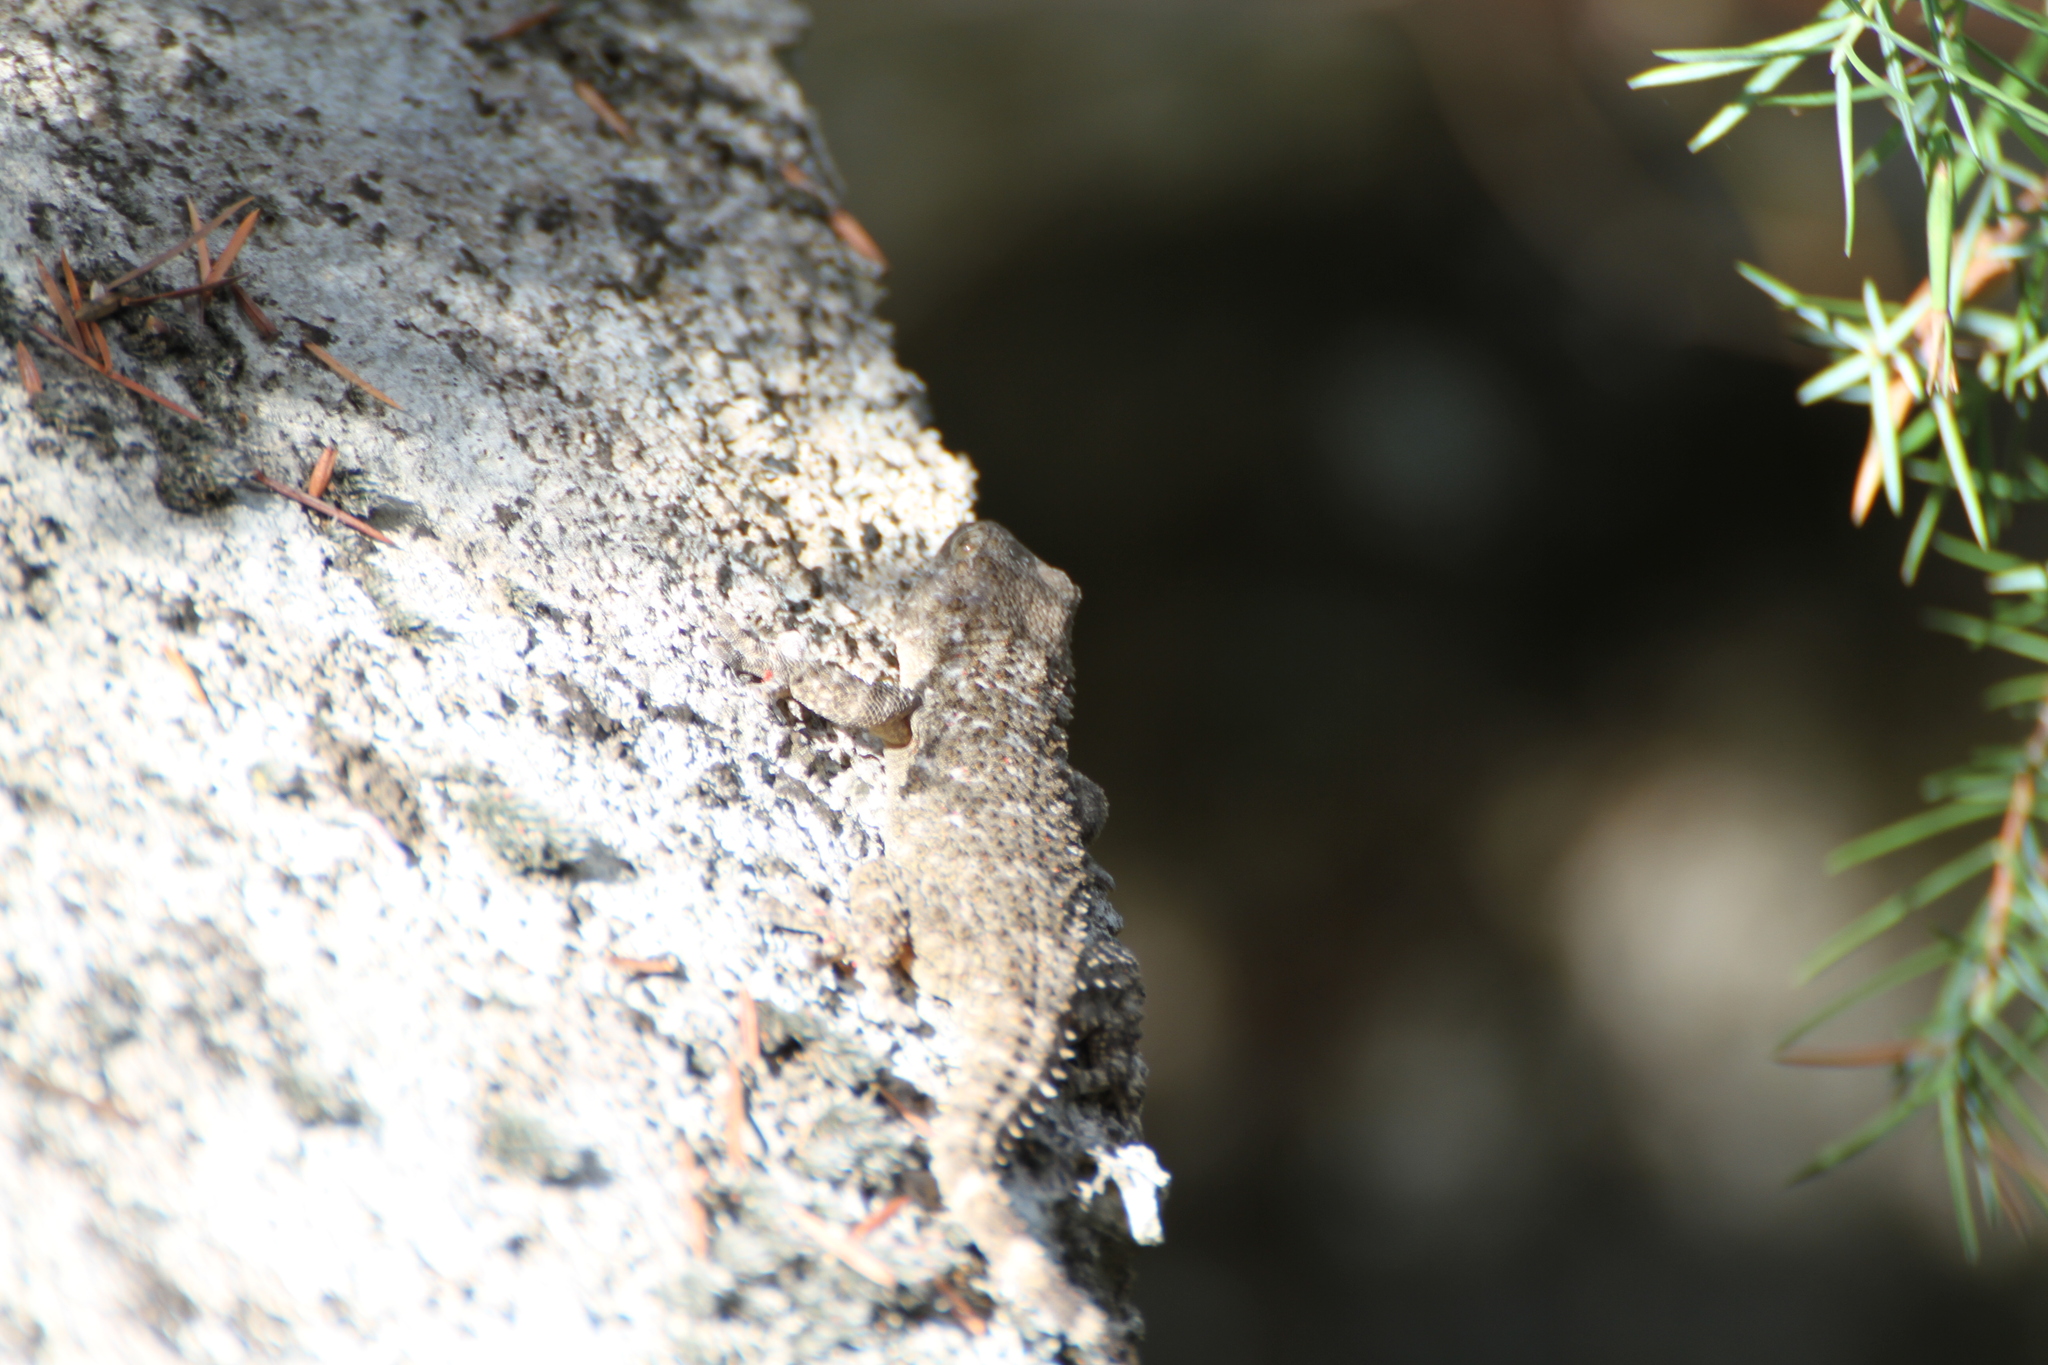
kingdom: Animalia
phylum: Chordata
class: Squamata
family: Phyllodactylidae
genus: Tarentola
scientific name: Tarentola mauritanica
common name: Moorish gecko
